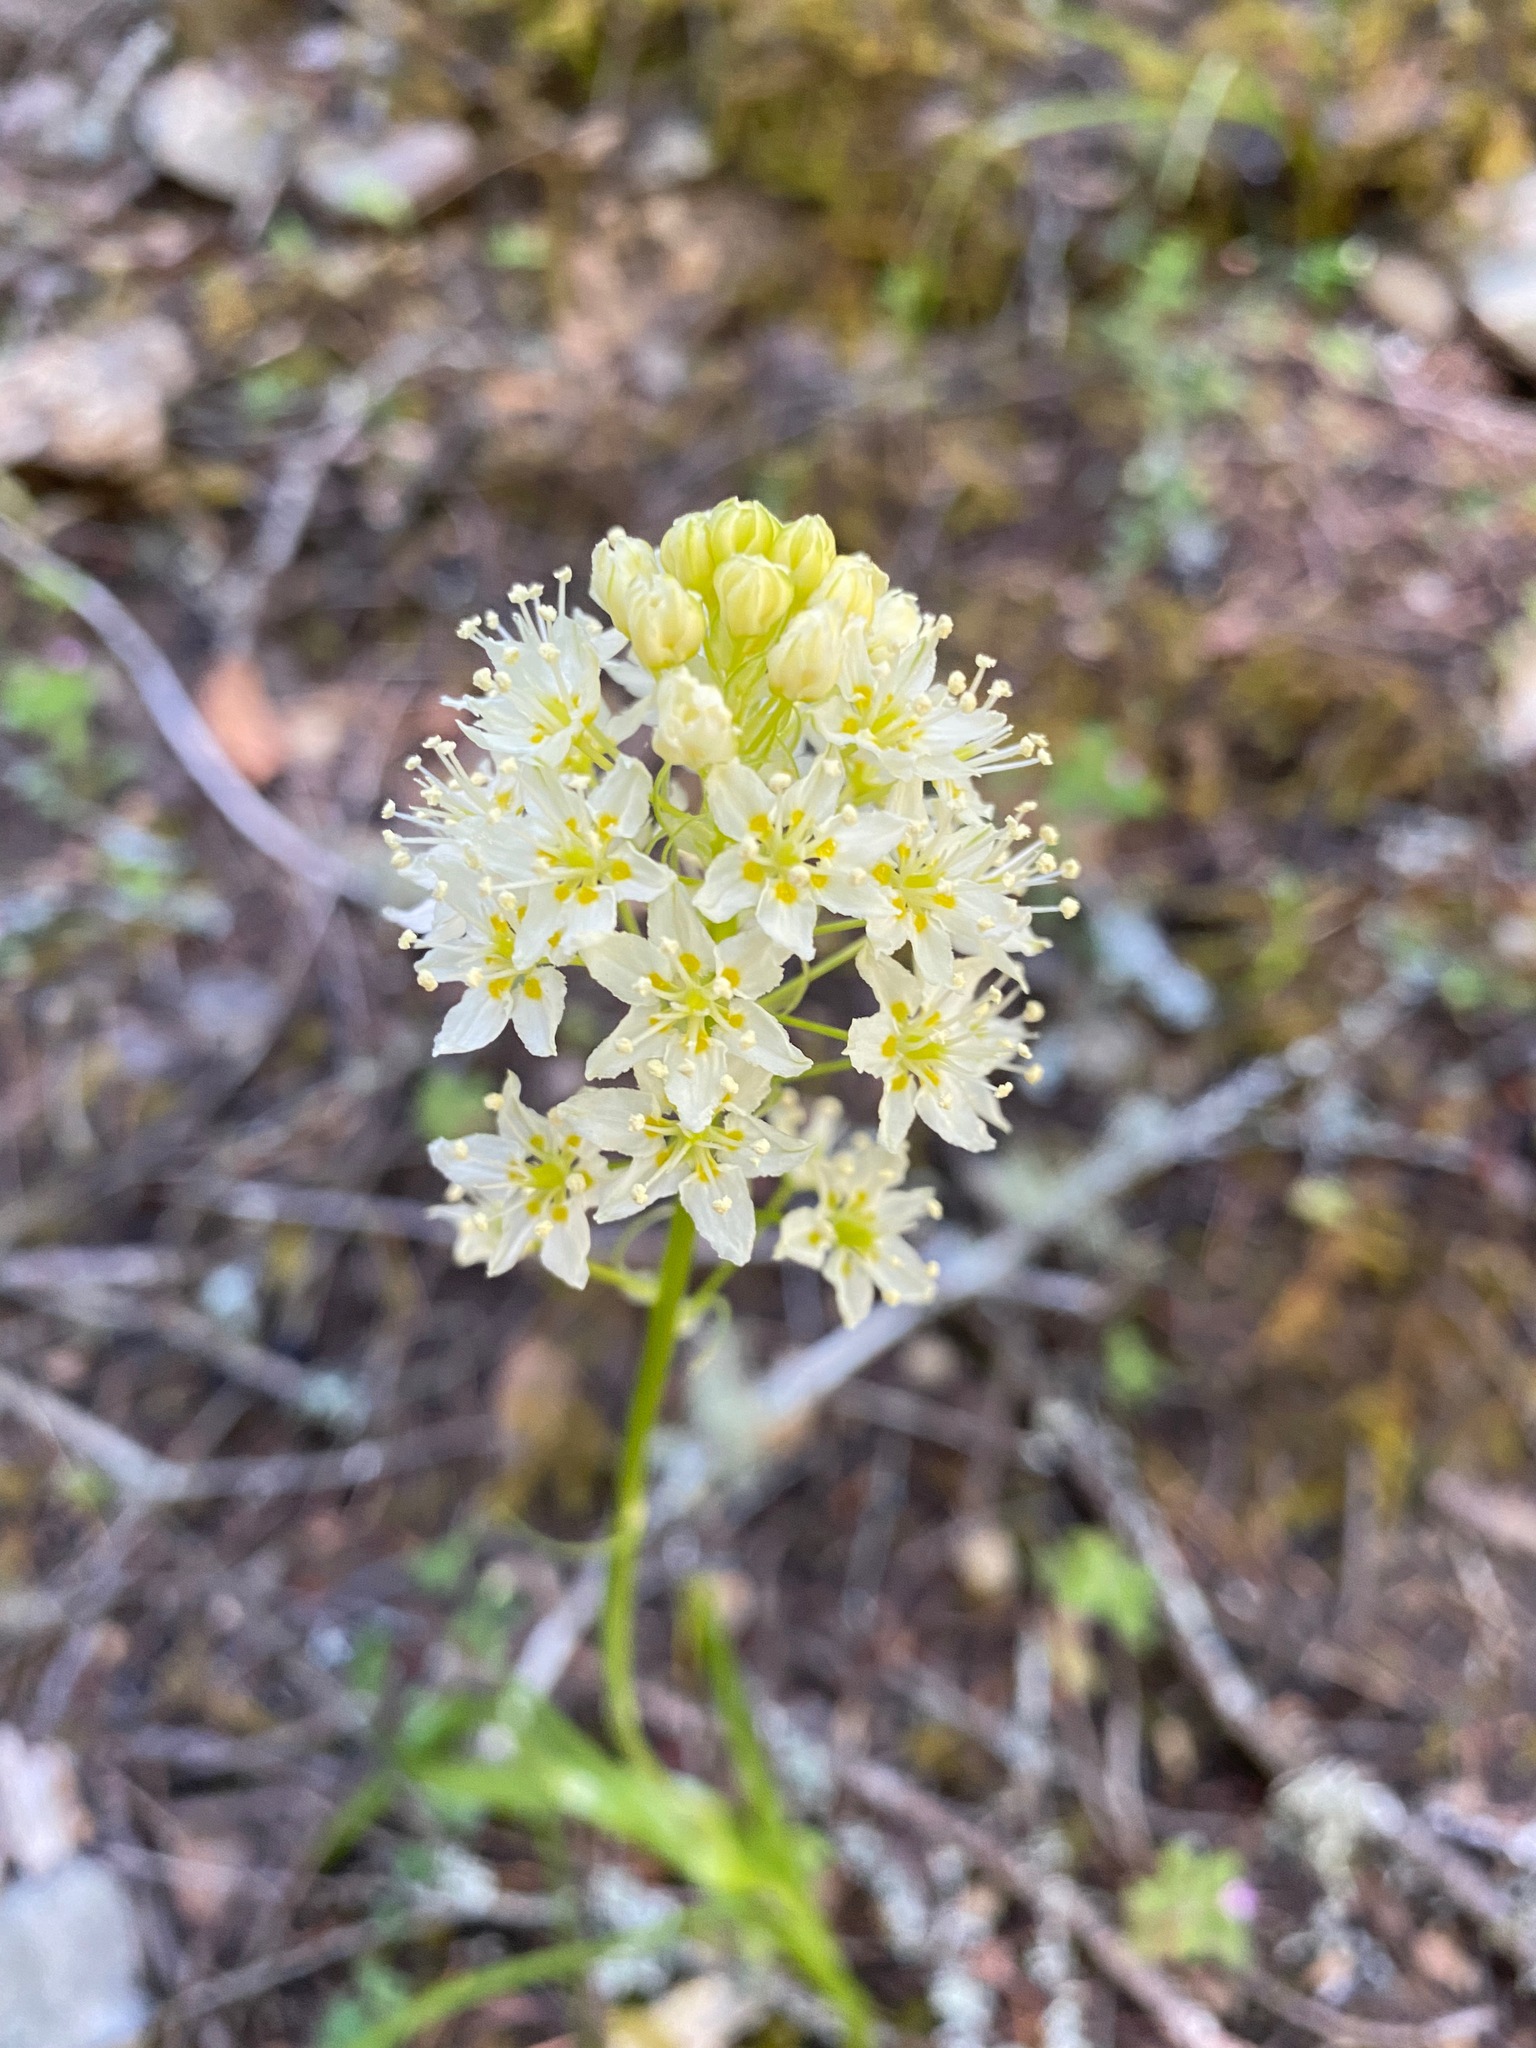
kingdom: Plantae
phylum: Tracheophyta
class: Liliopsida
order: Liliales
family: Melanthiaceae
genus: Toxicoscordion
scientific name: Toxicoscordion venenosum
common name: Meadow death camas
